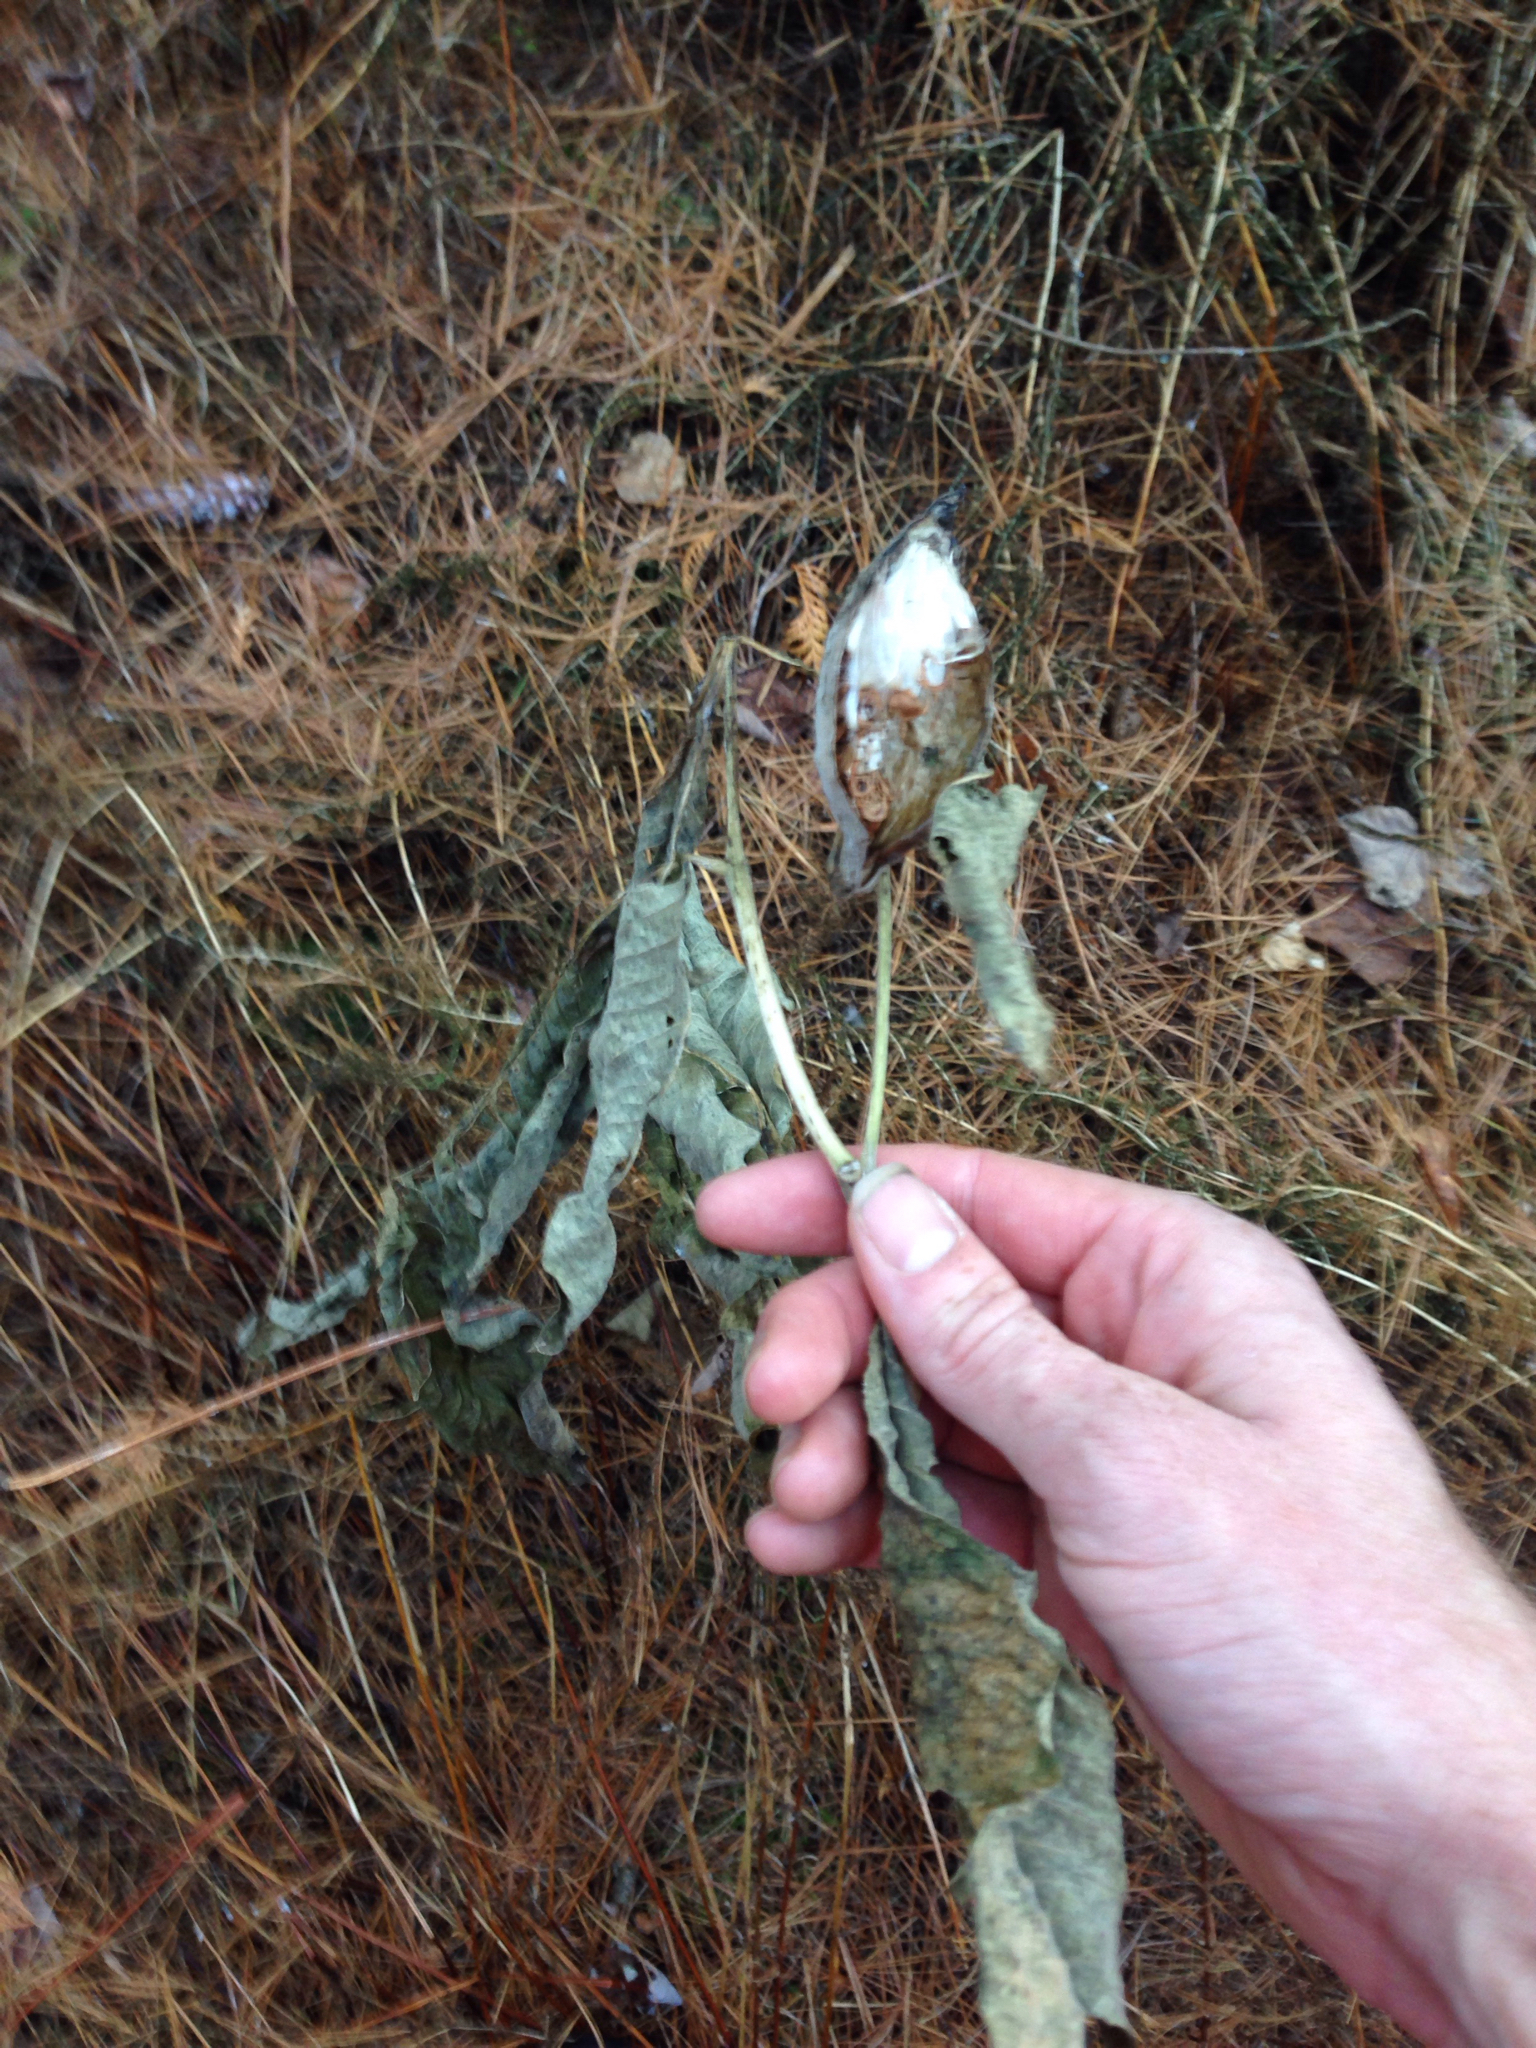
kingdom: Plantae
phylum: Tracheophyta
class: Magnoliopsida
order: Gentianales
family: Apocynaceae
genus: Asclepias
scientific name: Asclepias syriaca
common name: Common milkweed
